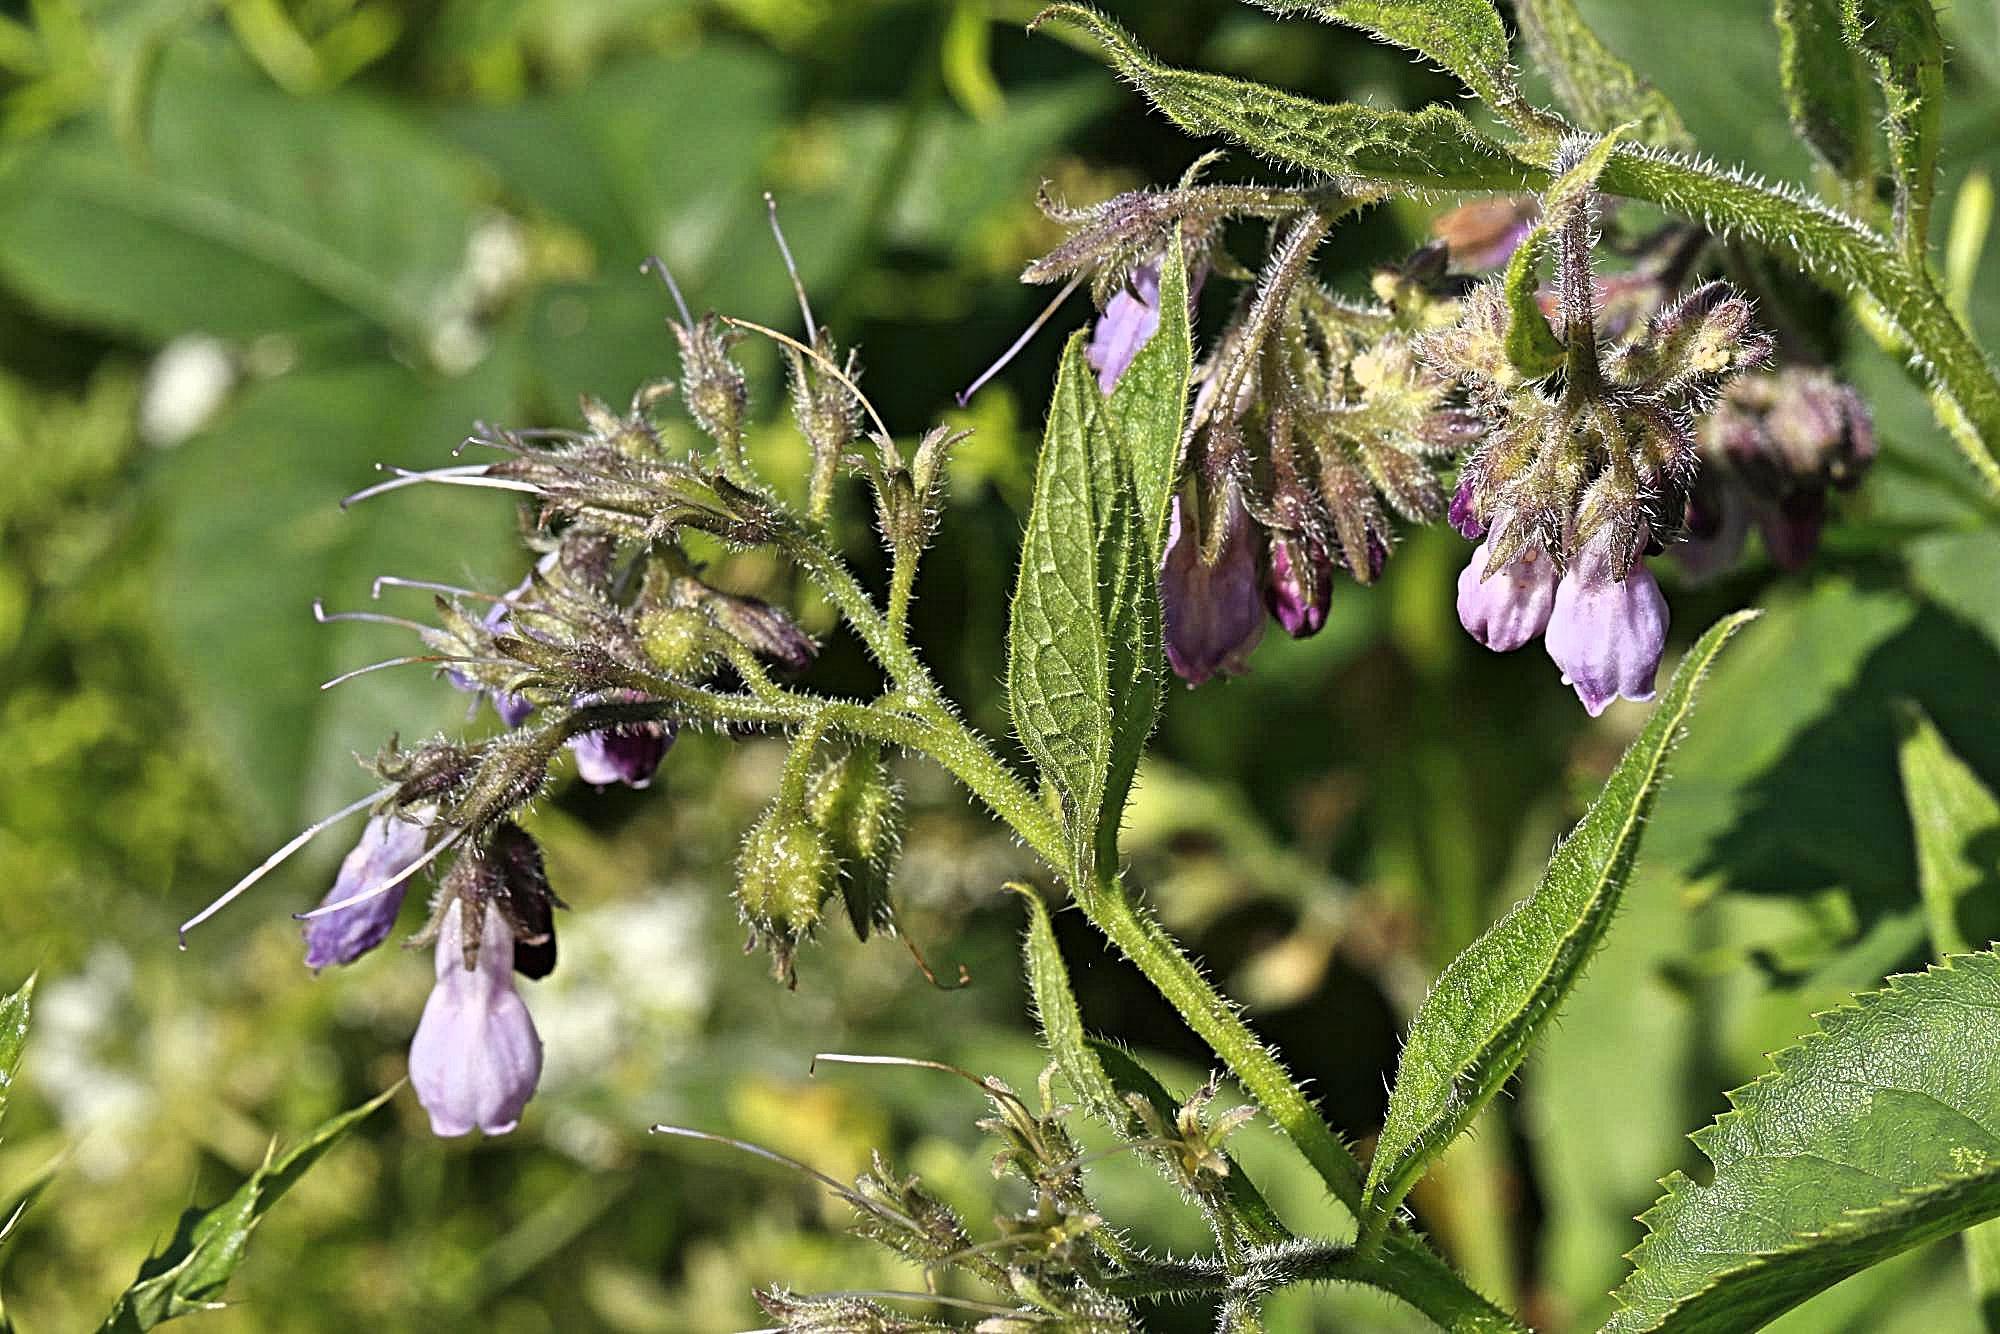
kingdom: Plantae
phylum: Tracheophyta
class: Magnoliopsida
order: Boraginales
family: Boraginaceae
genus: Symphytum
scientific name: Symphytum uplandicum
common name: Russian comfrey
